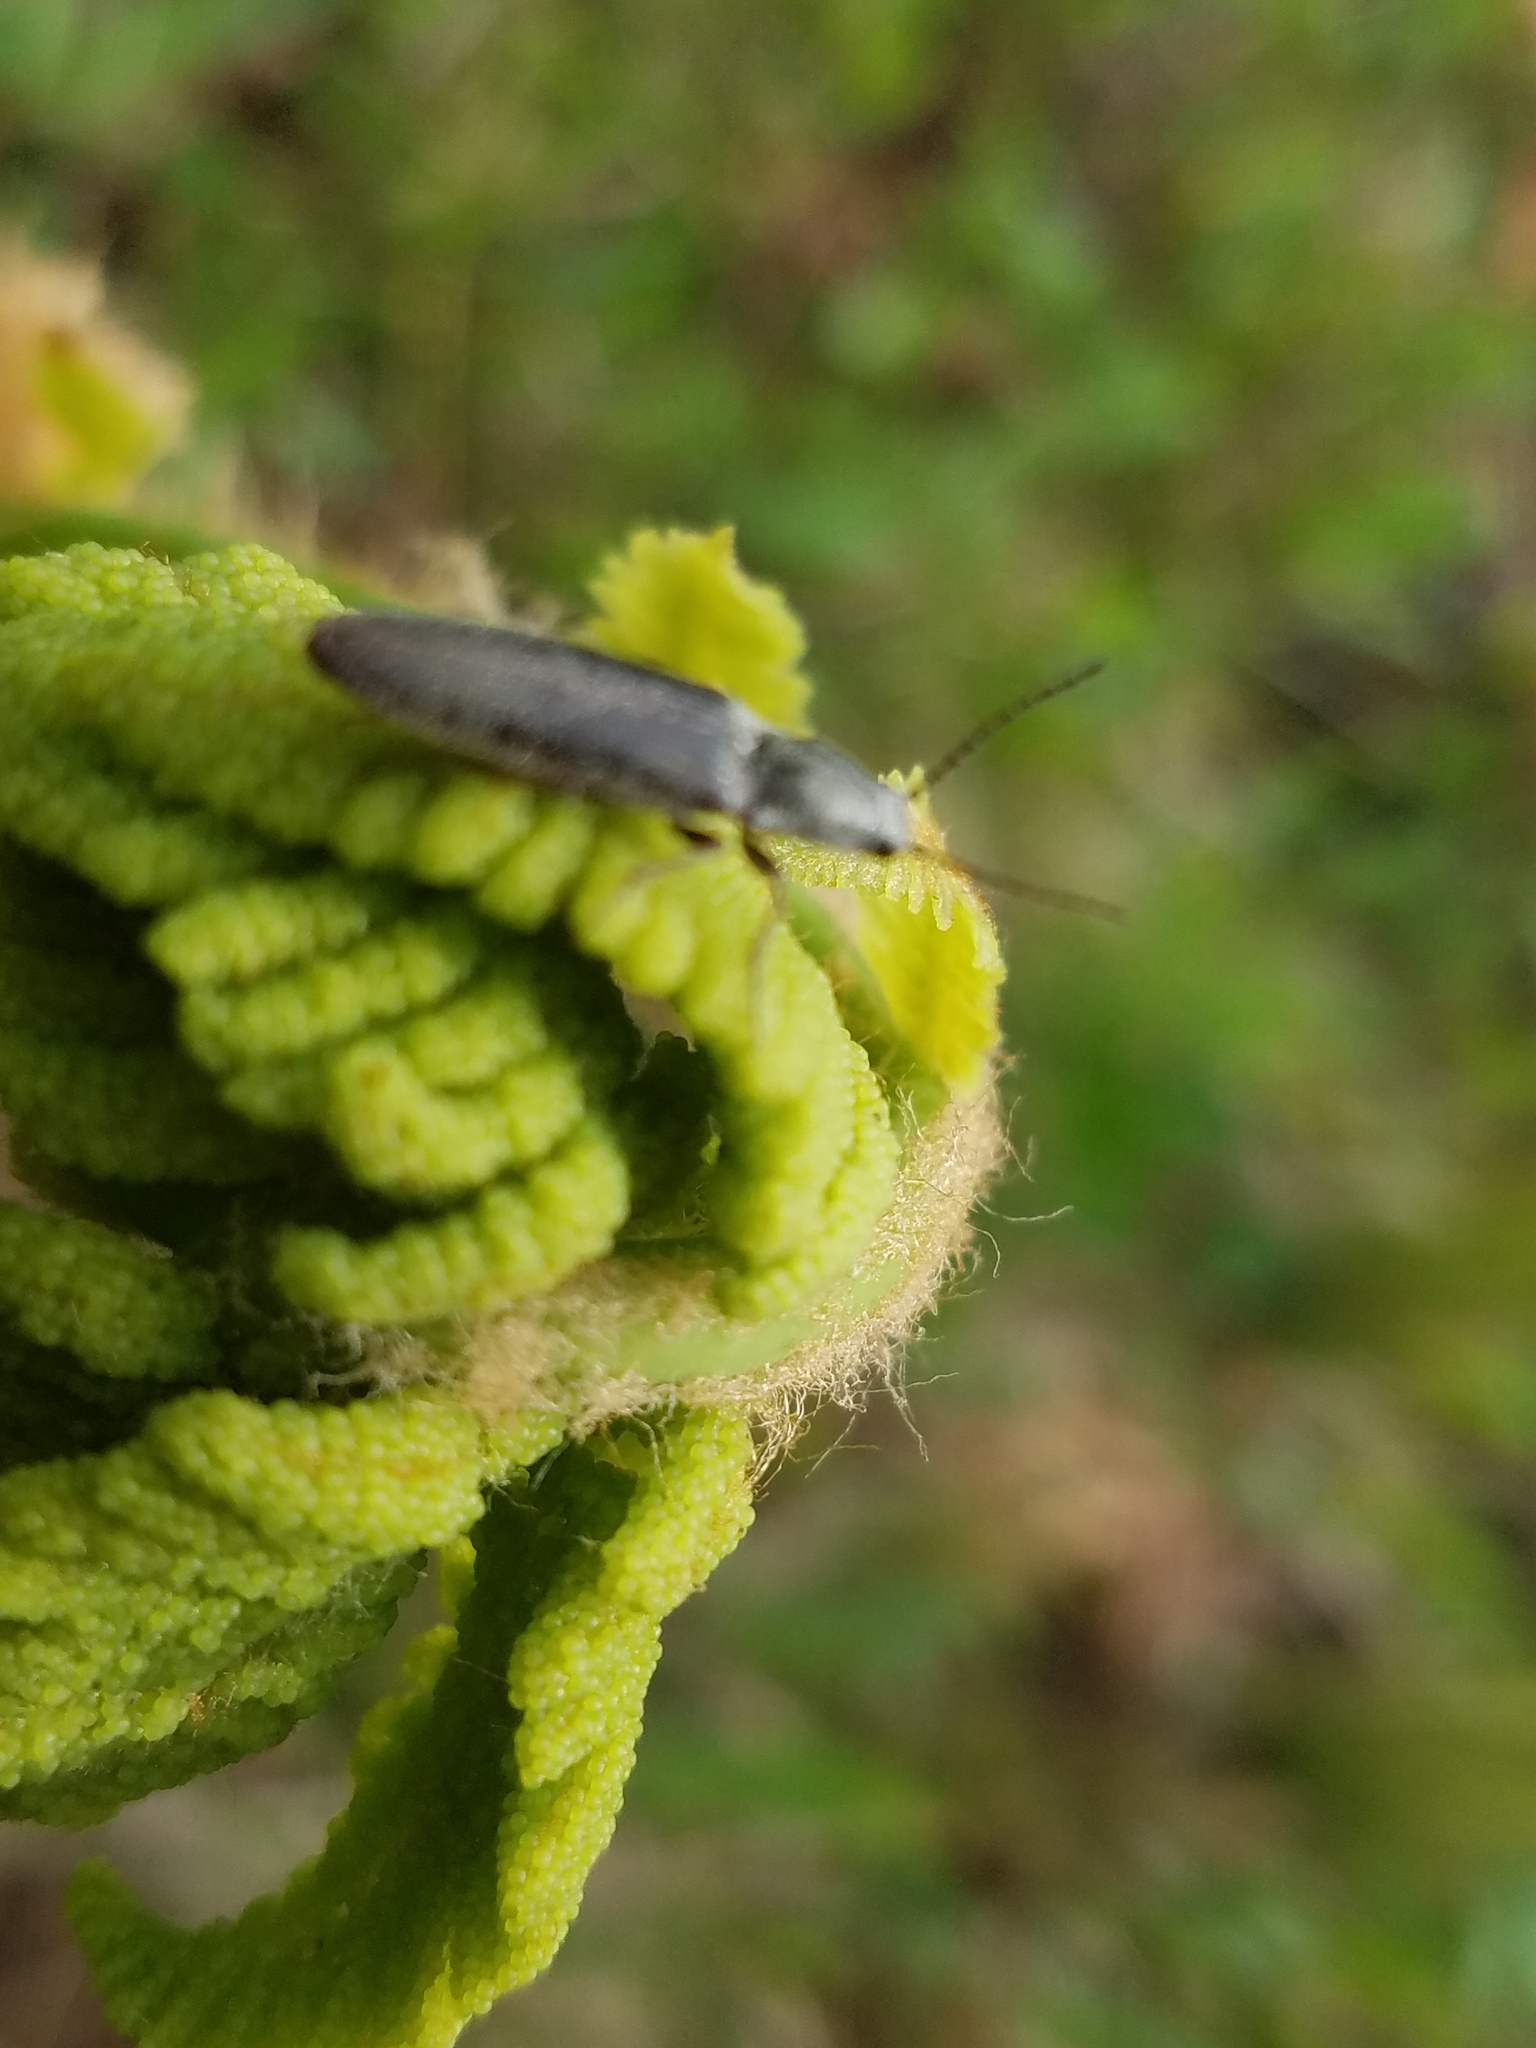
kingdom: Plantae
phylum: Tracheophyta
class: Polypodiopsida
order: Osmundales
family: Osmundaceae
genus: Osmundastrum
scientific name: Osmundastrum cinnamomeum
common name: Cinnamon fern
